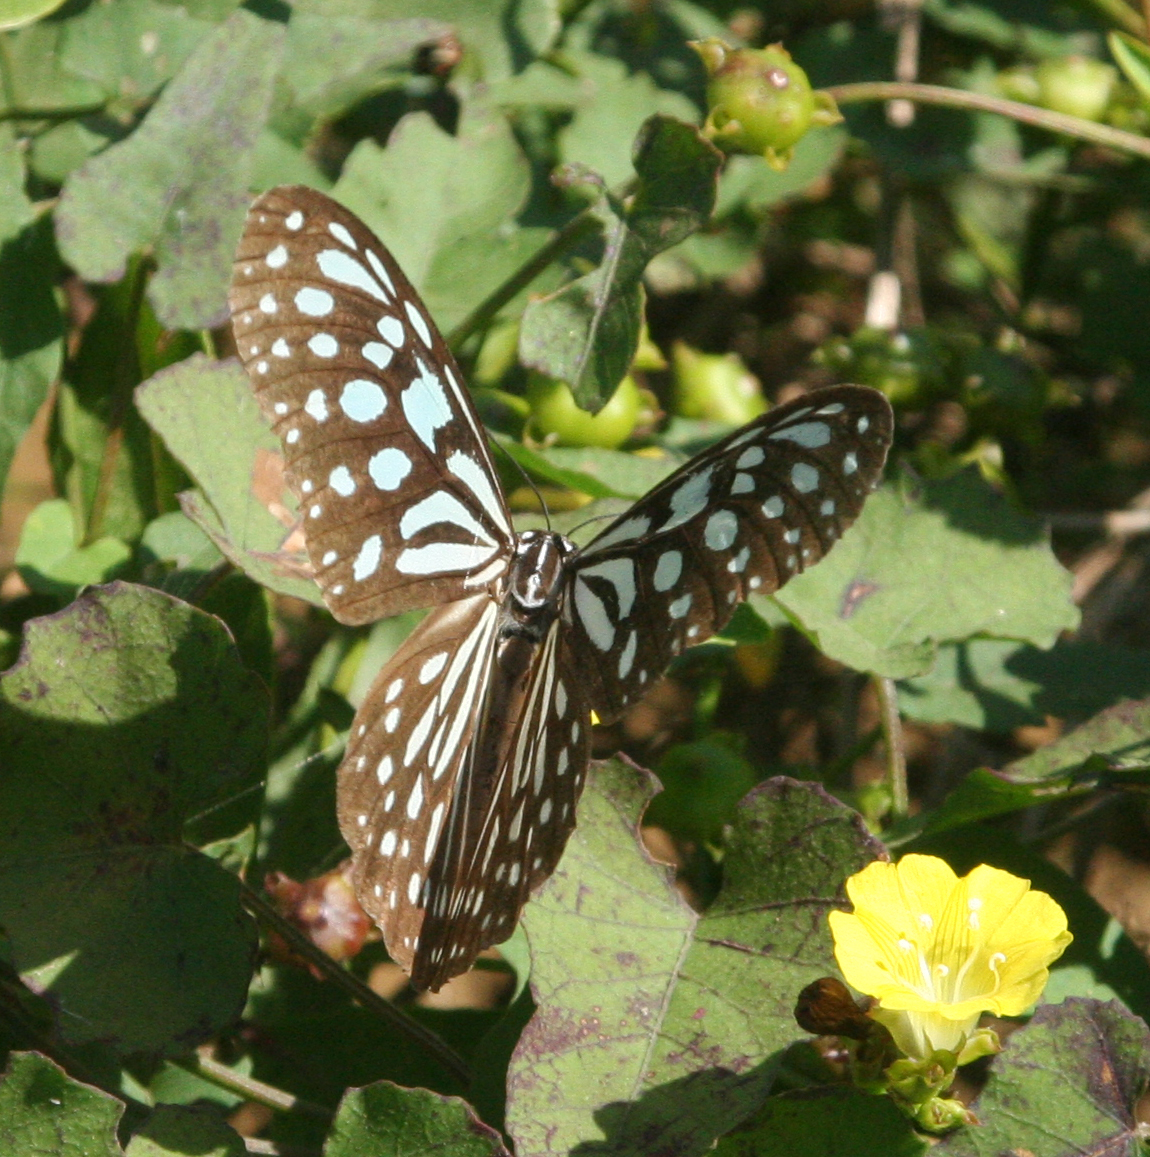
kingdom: Plantae
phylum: Tracheophyta
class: Magnoliopsida
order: Solanales
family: Convolvulaceae
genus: Merremia
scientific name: Merremia hederacea
